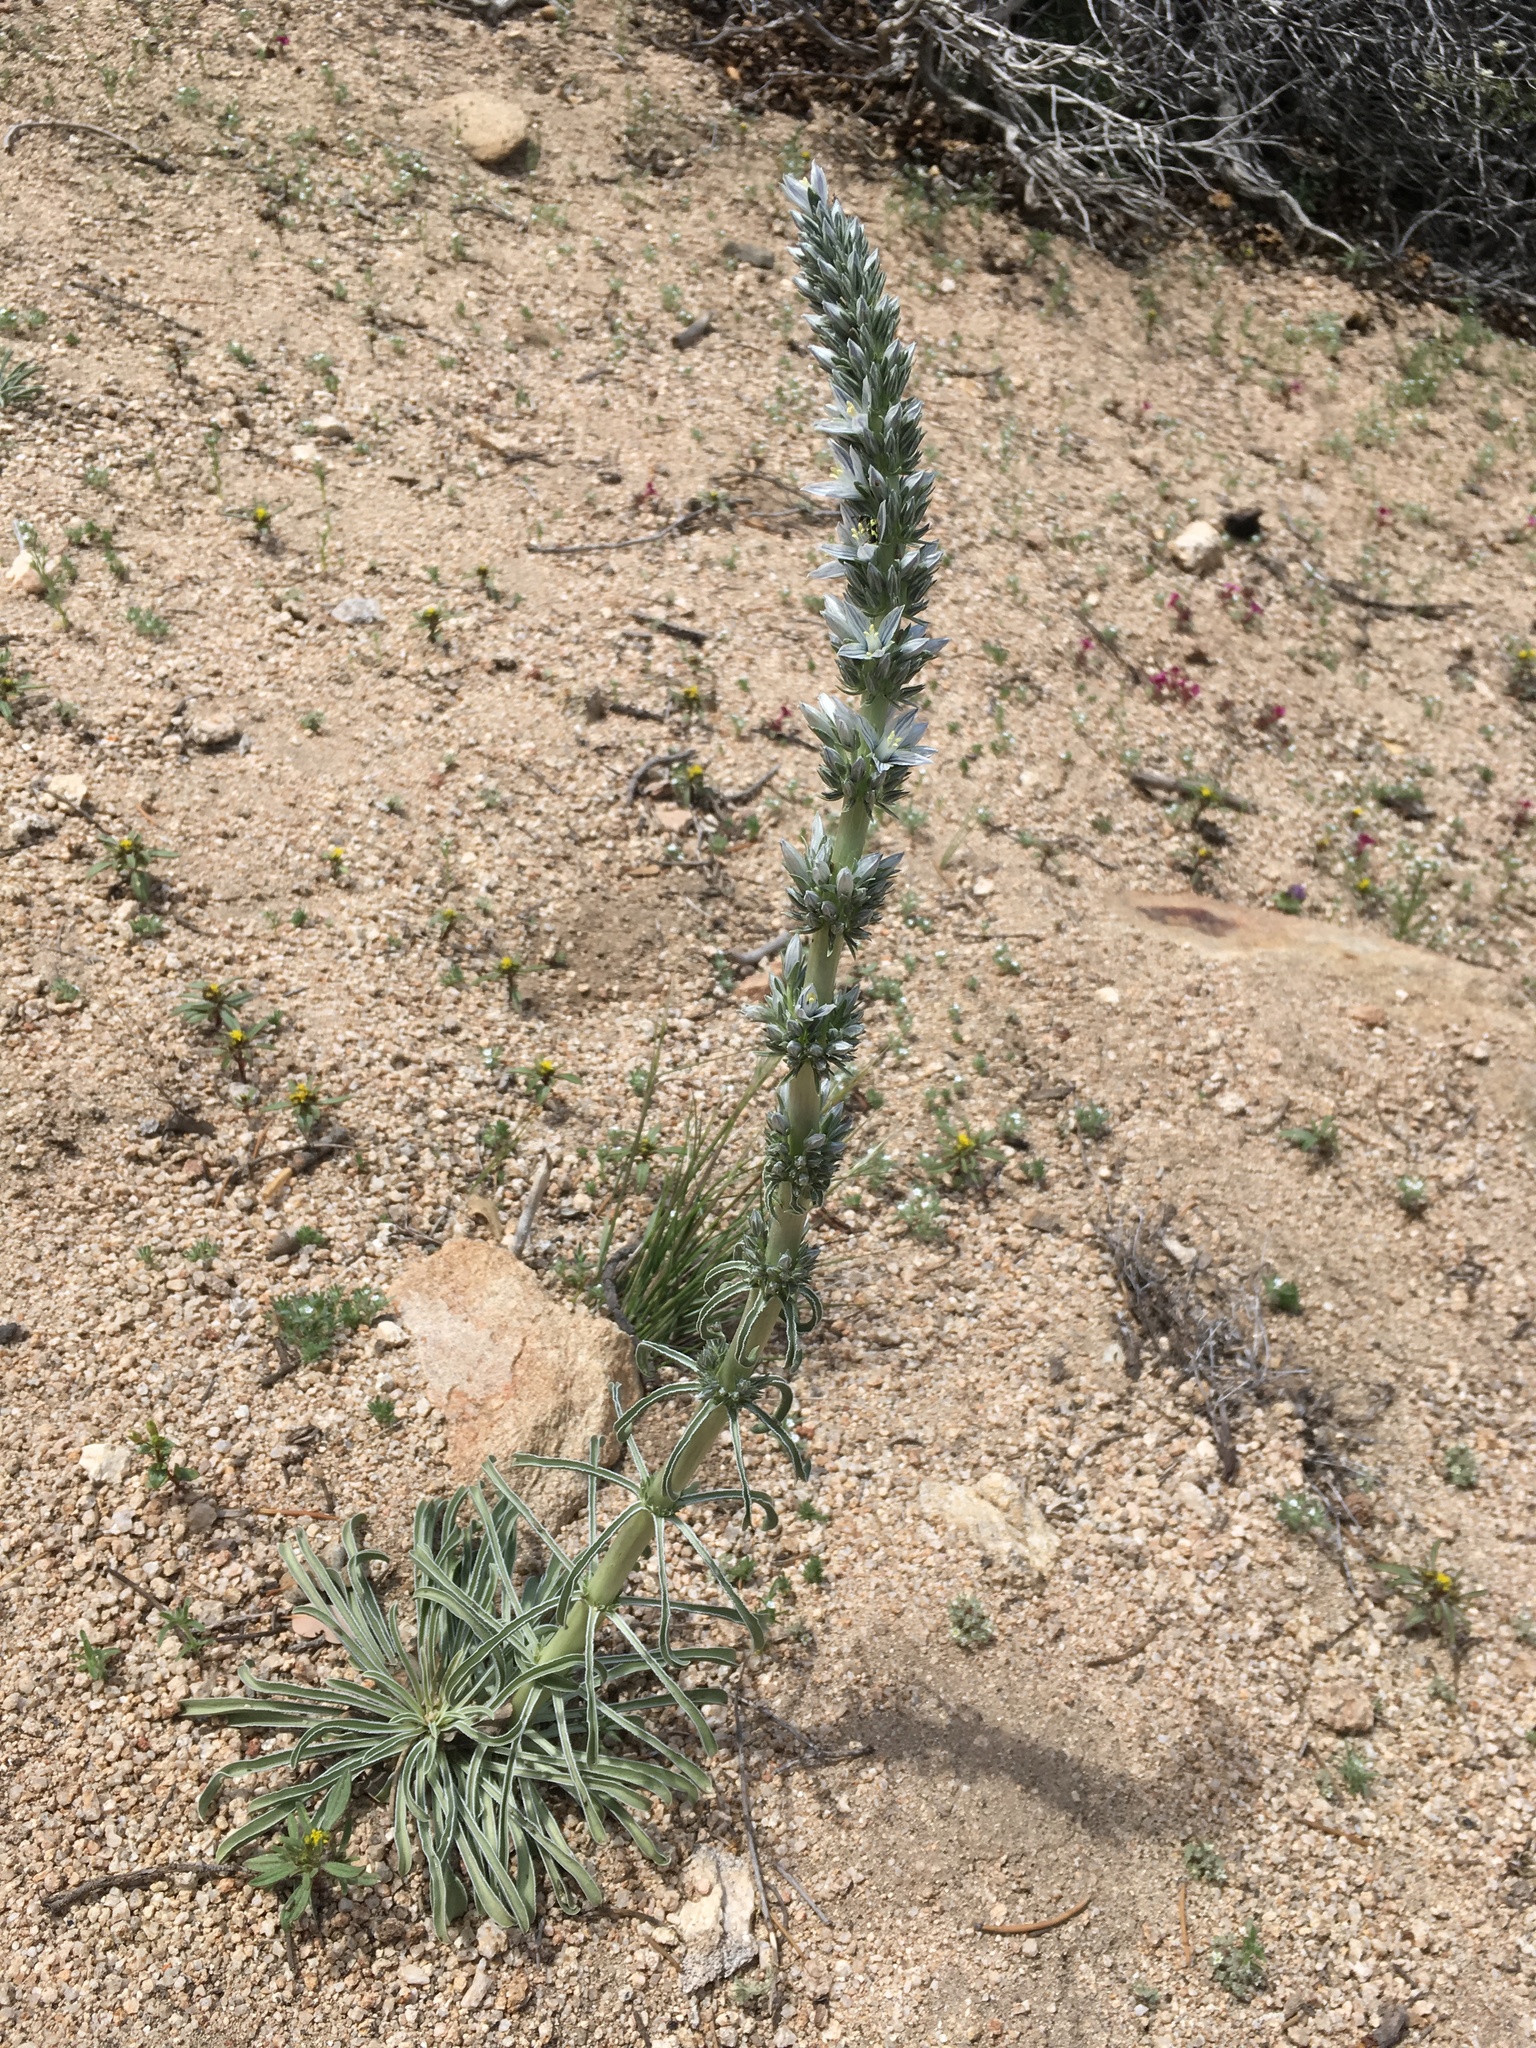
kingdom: Plantae
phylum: Tracheophyta
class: Magnoliopsida
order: Gentianales
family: Gentianaceae
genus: Frasera
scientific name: Frasera tubulosa
